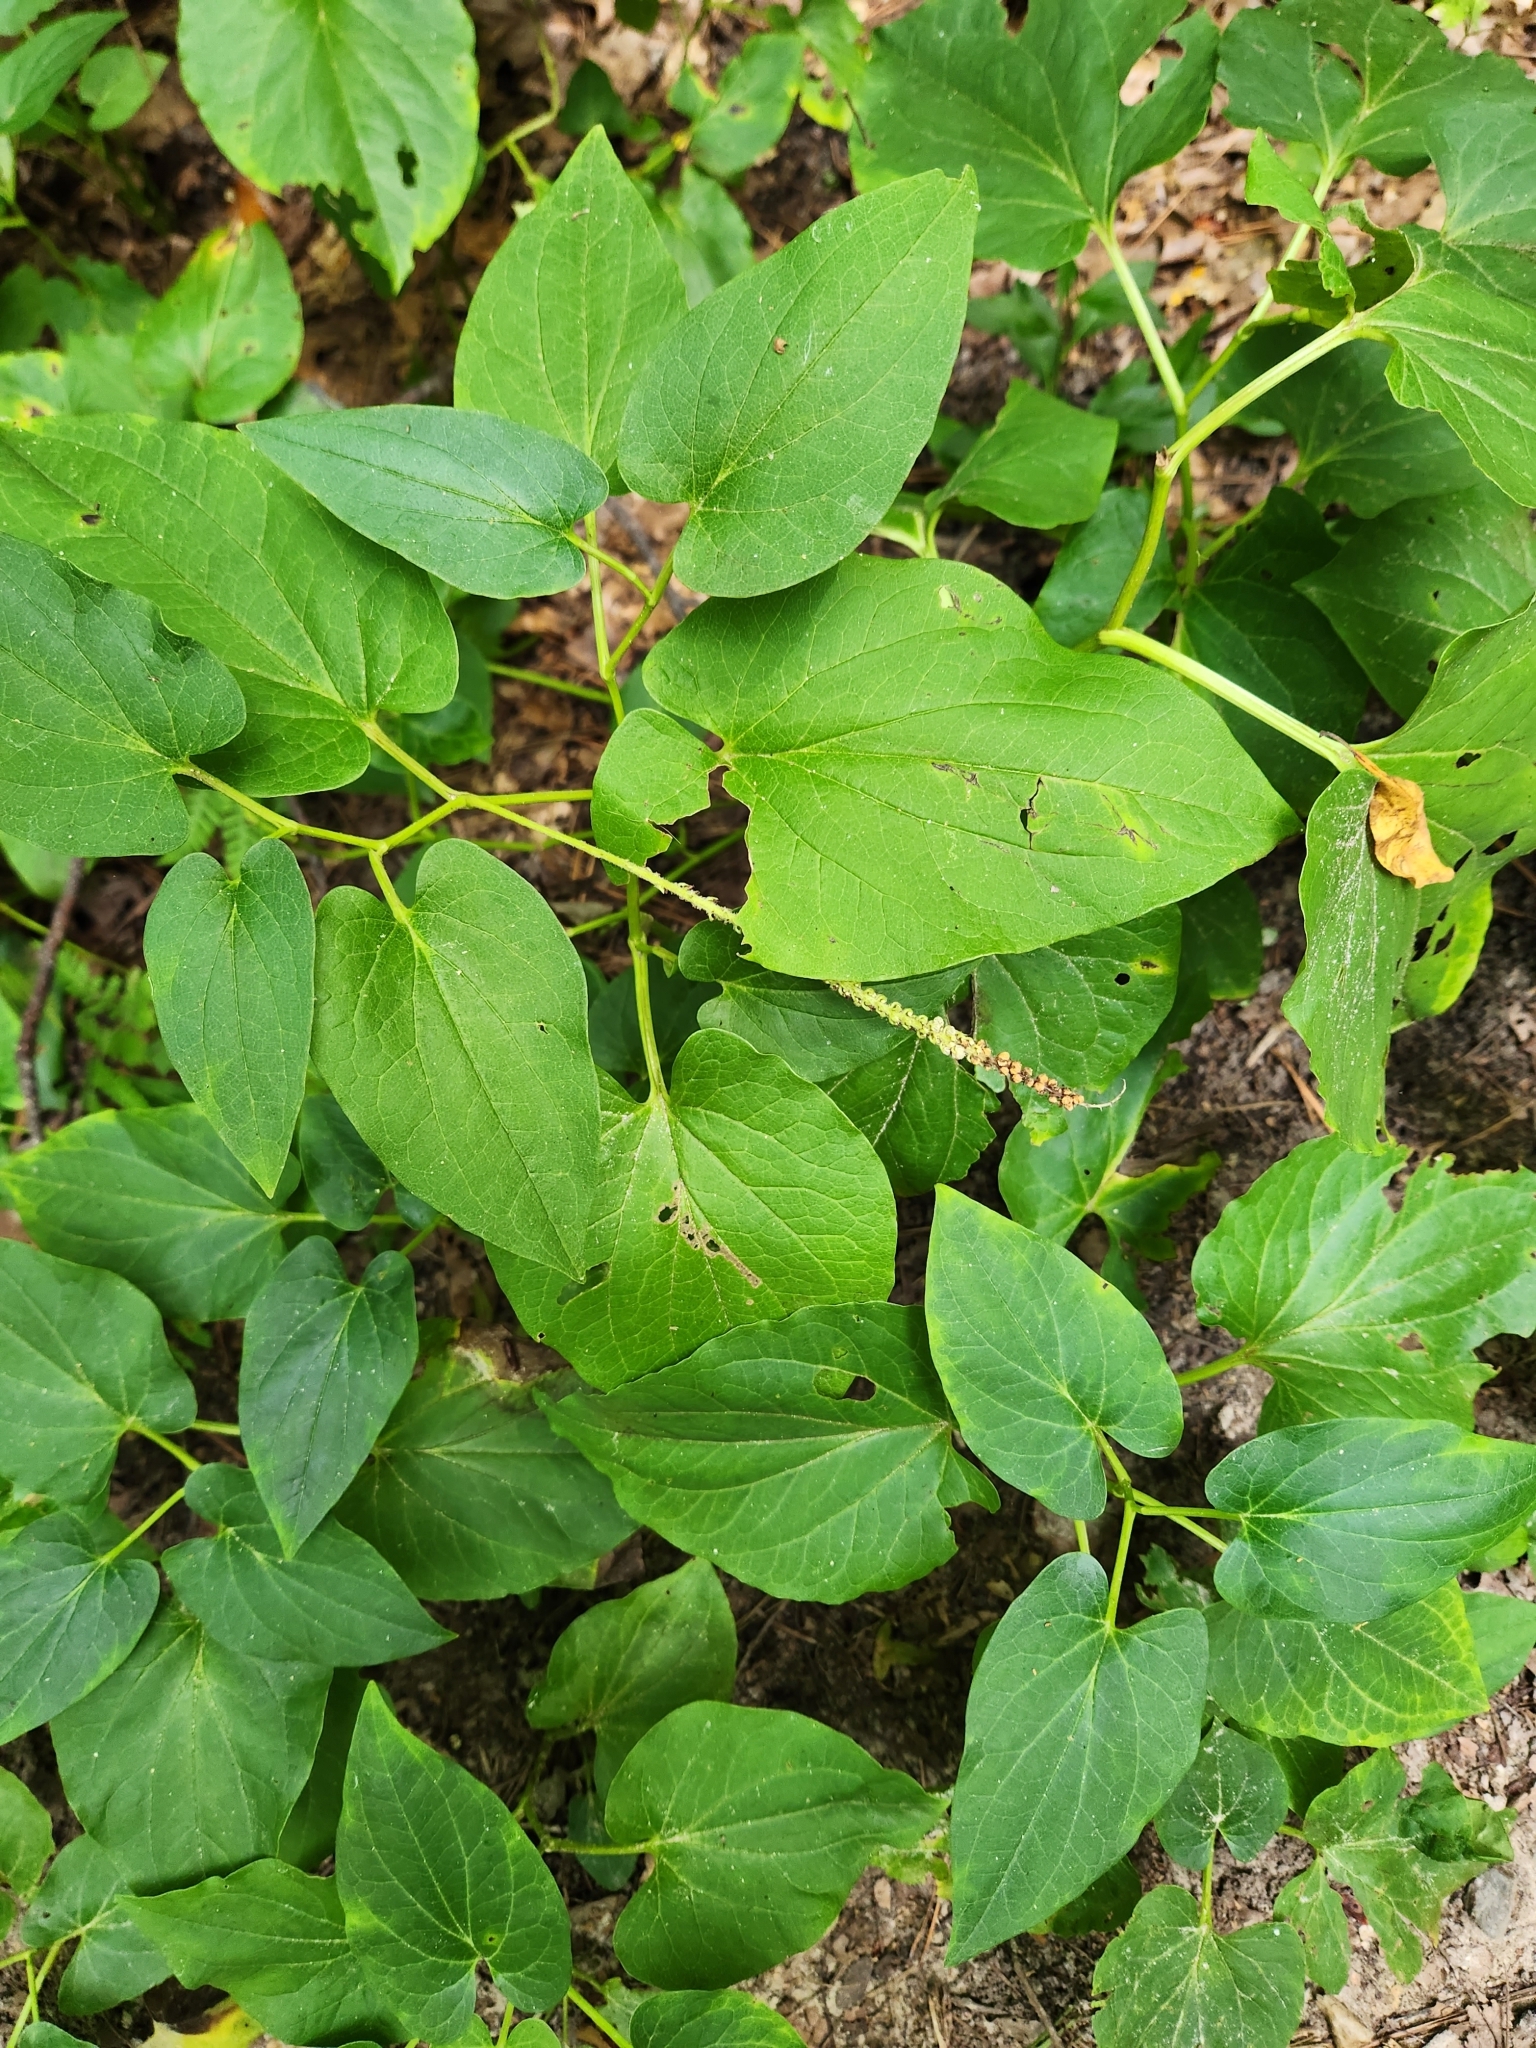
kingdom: Plantae
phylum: Tracheophyta
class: Magnoliopsida
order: Piperales
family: Saururaceae
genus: Saururus
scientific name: Saururus cernuus
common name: Lizard's-tail
